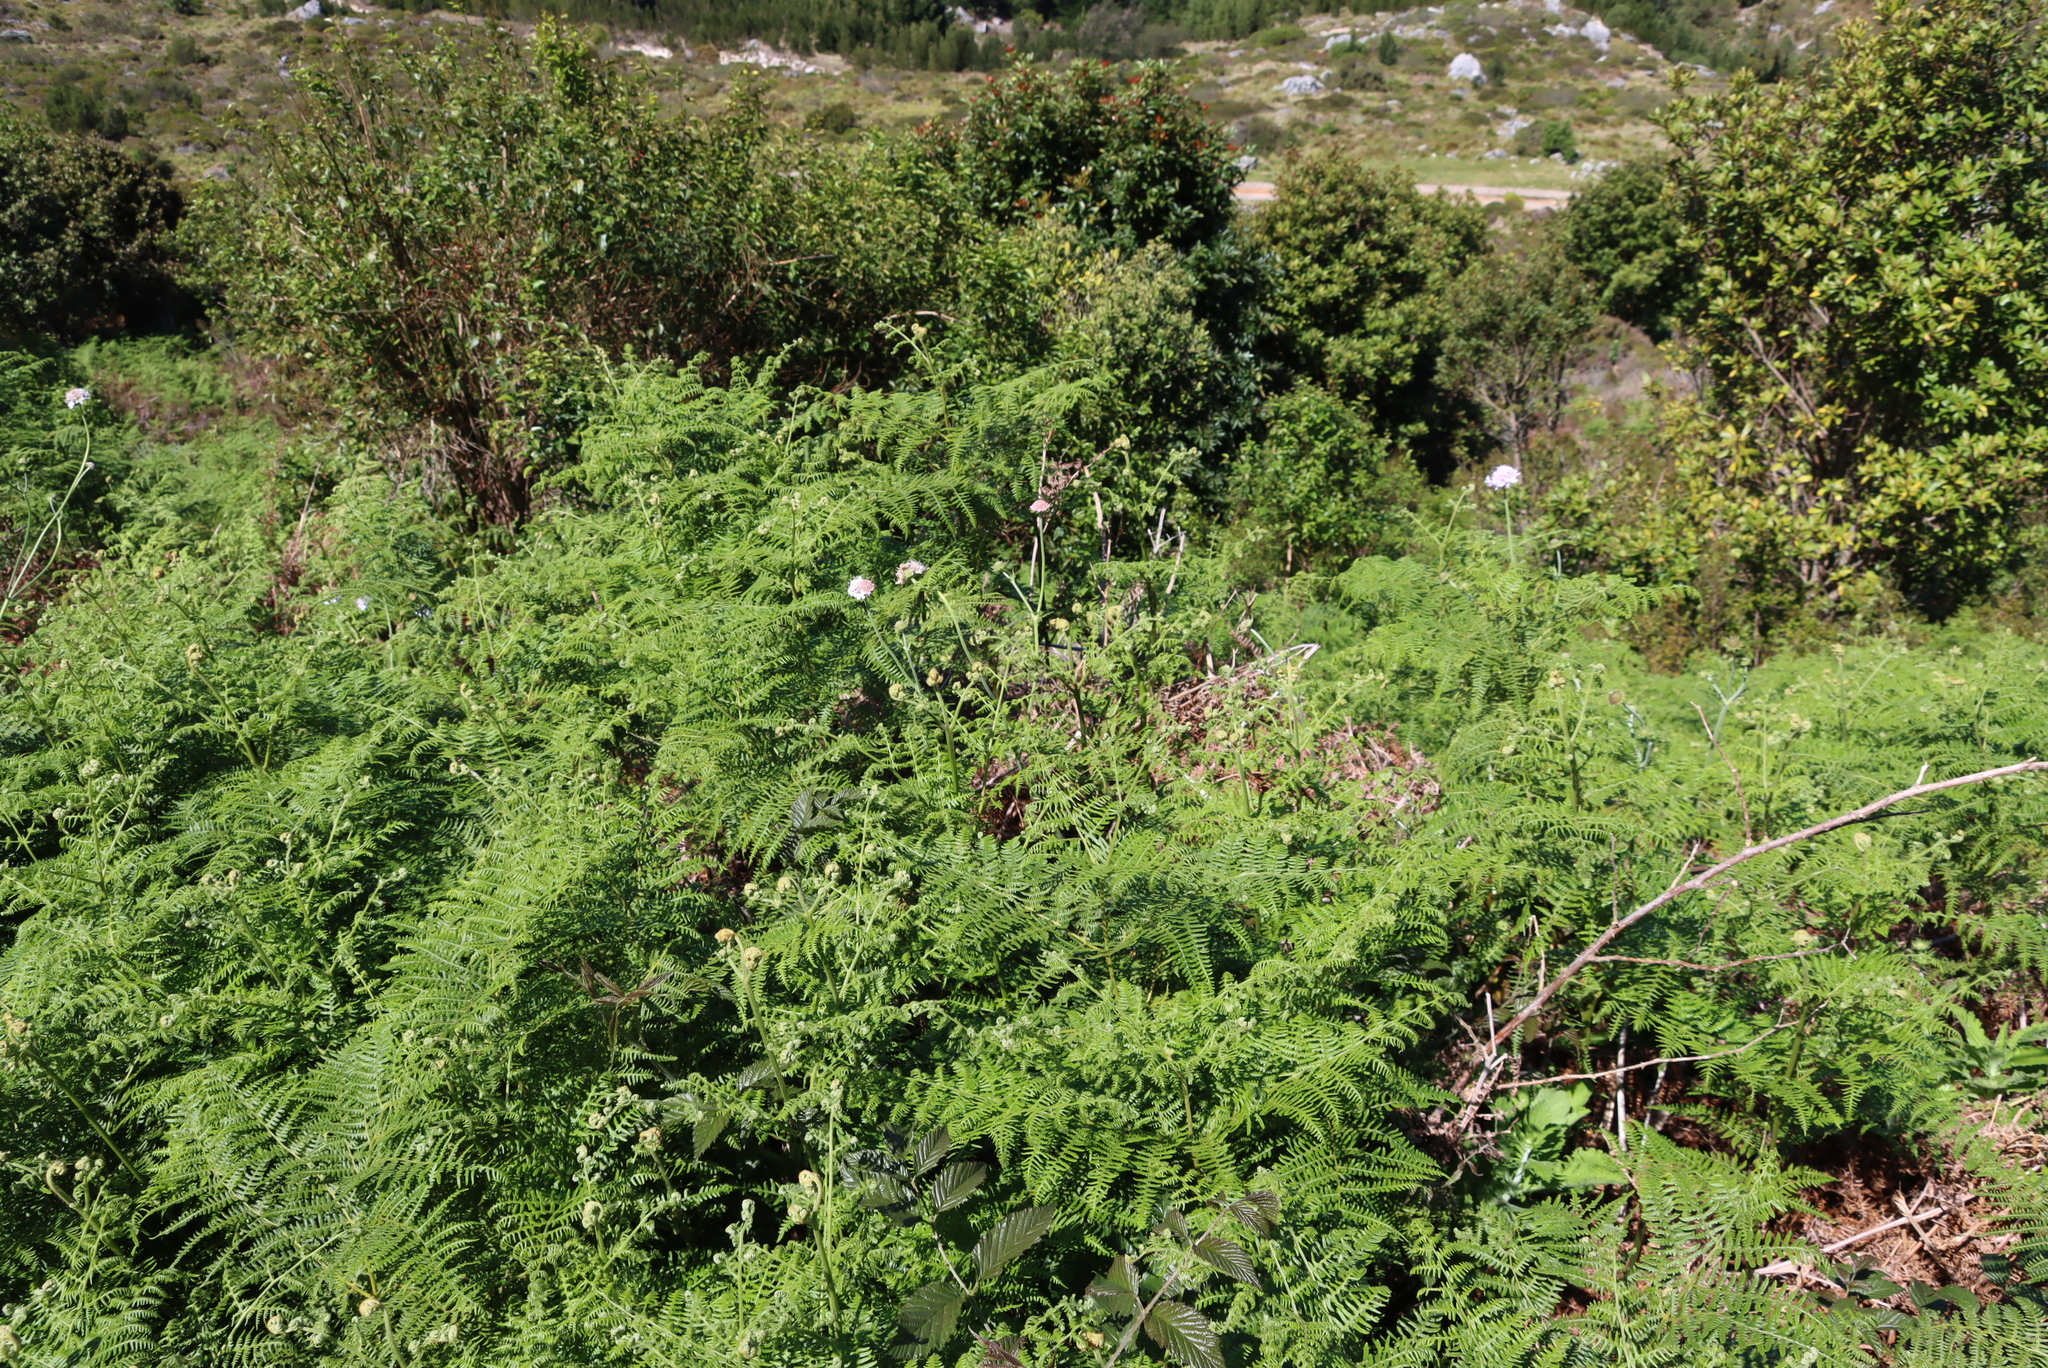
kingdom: Plantae
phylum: Tracheophyta
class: Polypodiopsida
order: Polypodiales
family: Dennstaedtiaceae
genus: Pteridium
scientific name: Pteridium aquilinum
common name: Bracken
